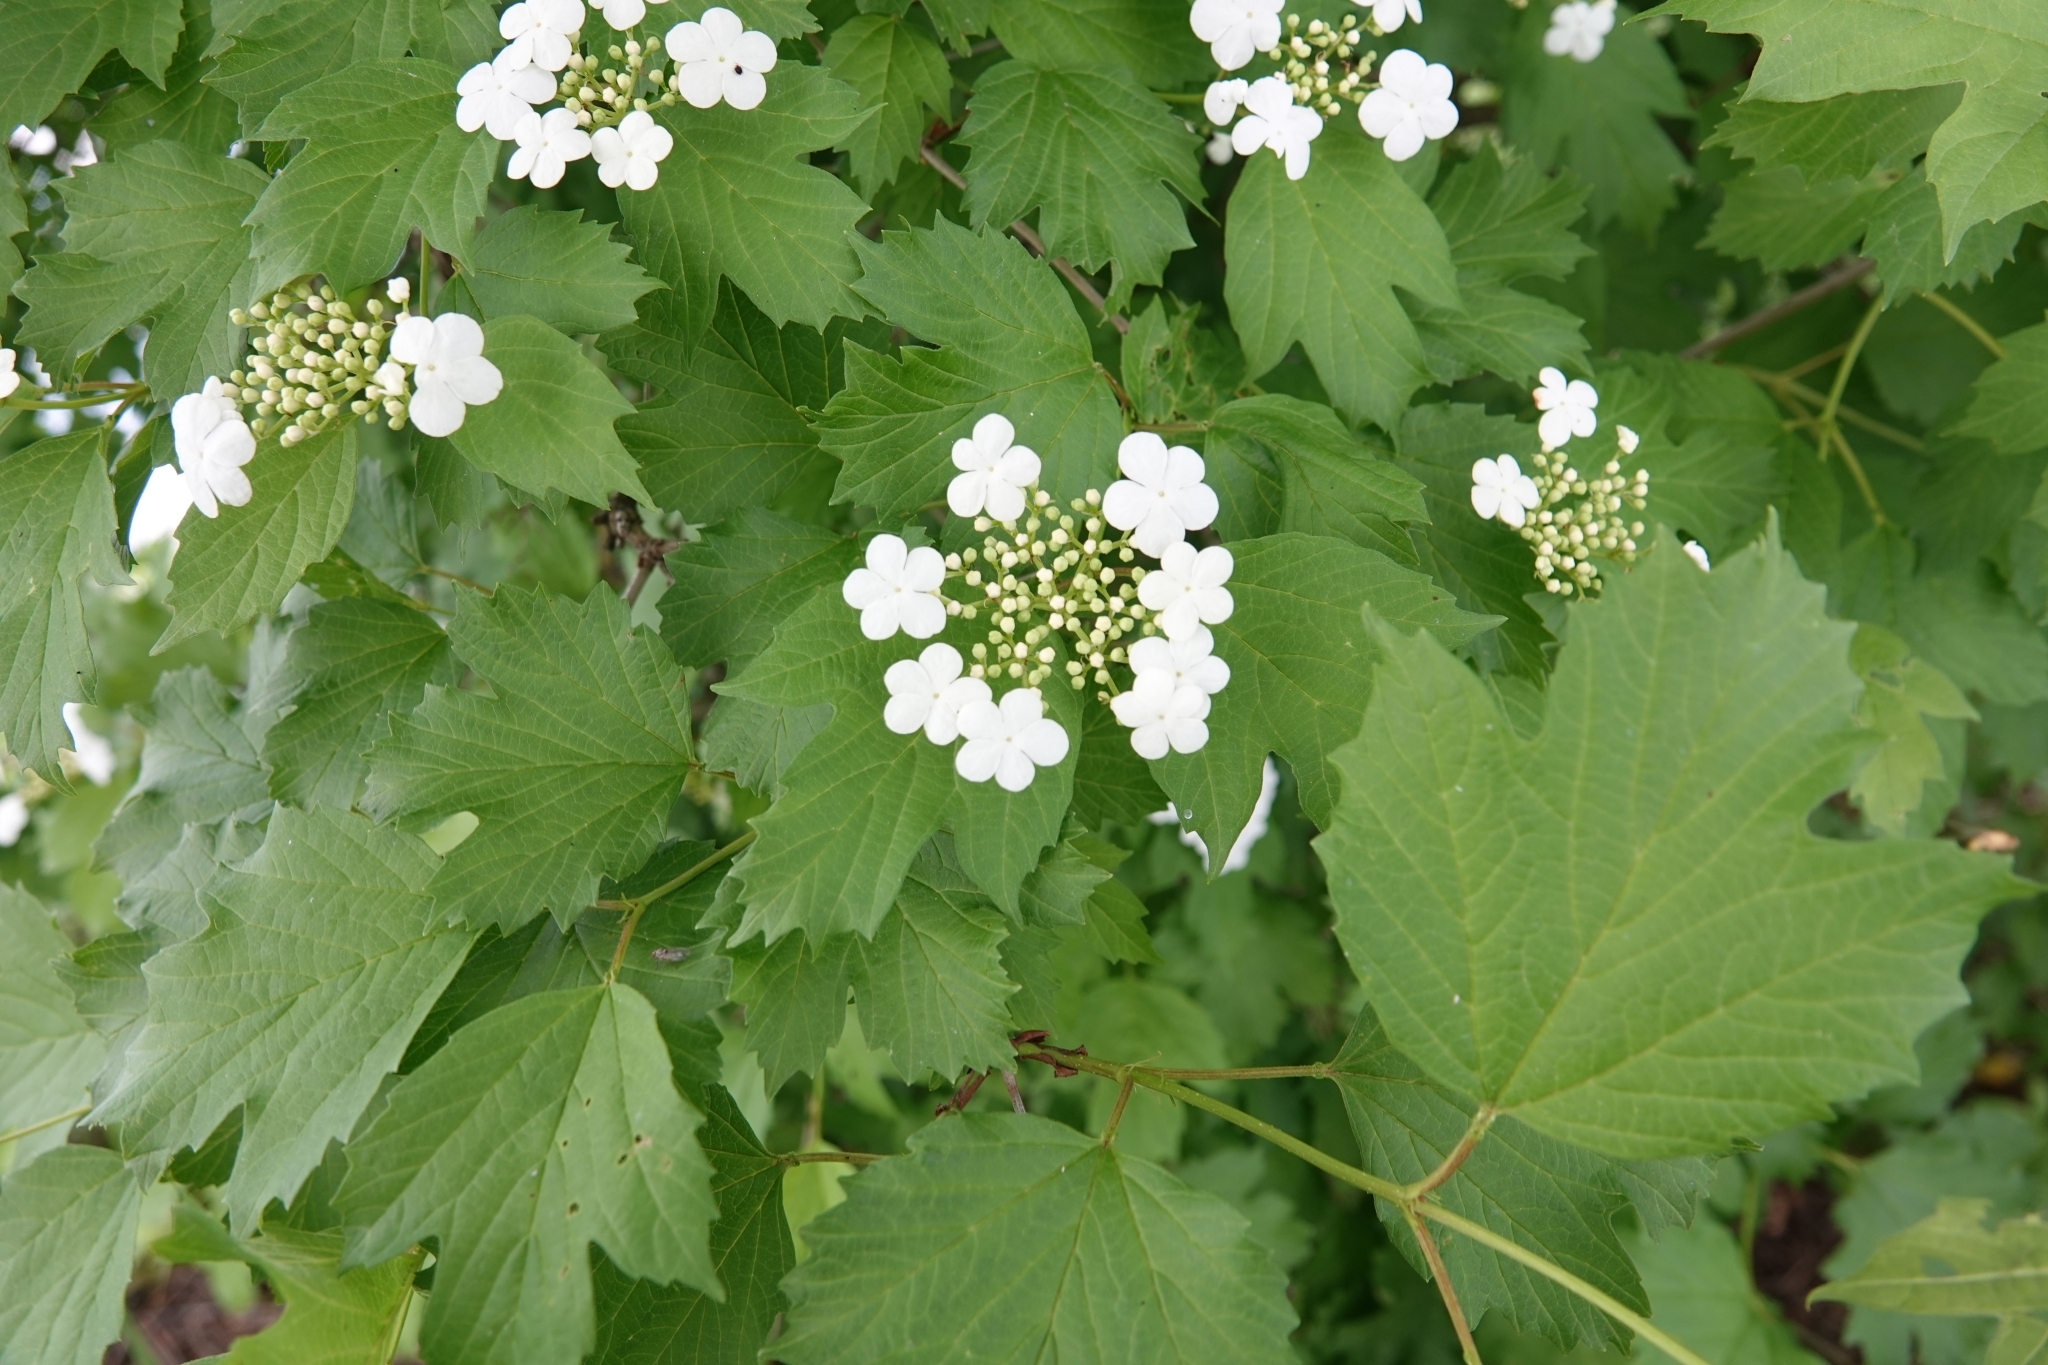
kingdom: Plantae
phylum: Tracheophyta
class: Magnoliopsida
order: Dipsacales
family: Viburnaceae
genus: Viburnum
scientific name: Viburnum opulus
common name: Guelder-rose
